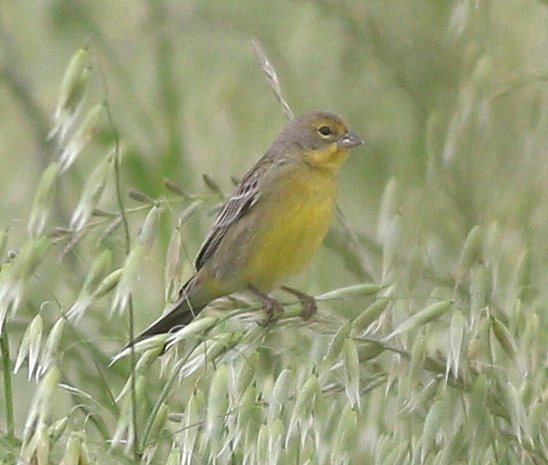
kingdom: Animalia
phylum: Chordata
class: Aves
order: Passeriformes
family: Thraupidae
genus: Sicalis
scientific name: Sicalis luteola
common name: Grassland yellow-finch
